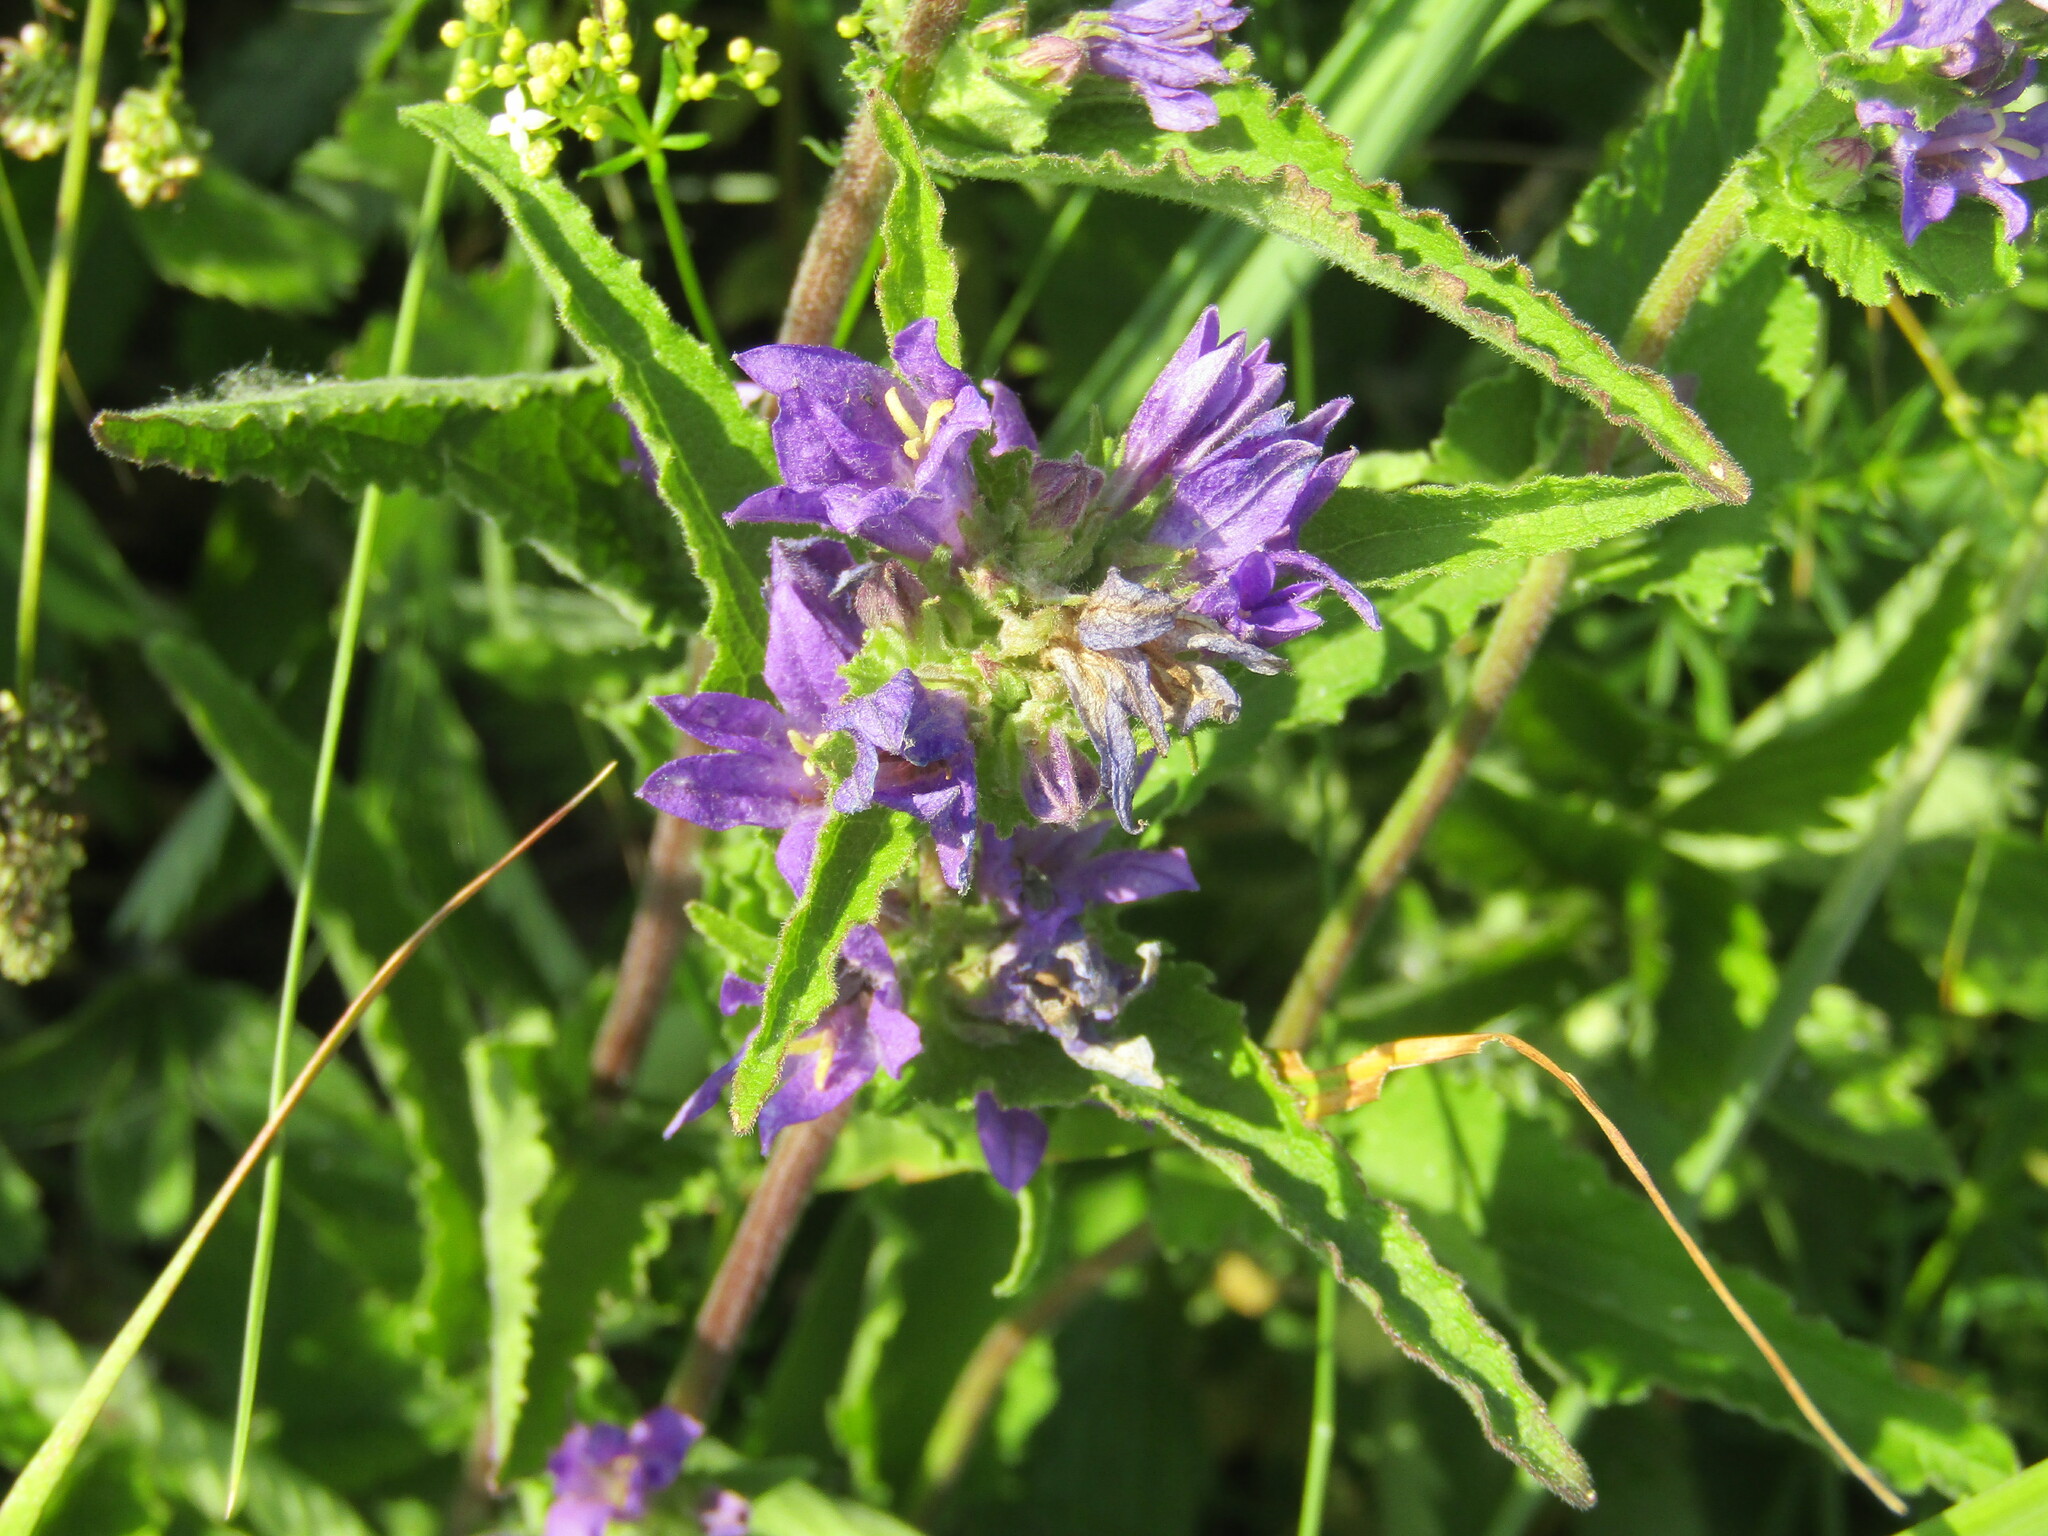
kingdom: Plantae
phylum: Tracheophyta
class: Magnoliopsida
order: Asterales
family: Campanulaceae
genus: Campanula
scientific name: Campanula glomerata
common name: Clustered bellflower
